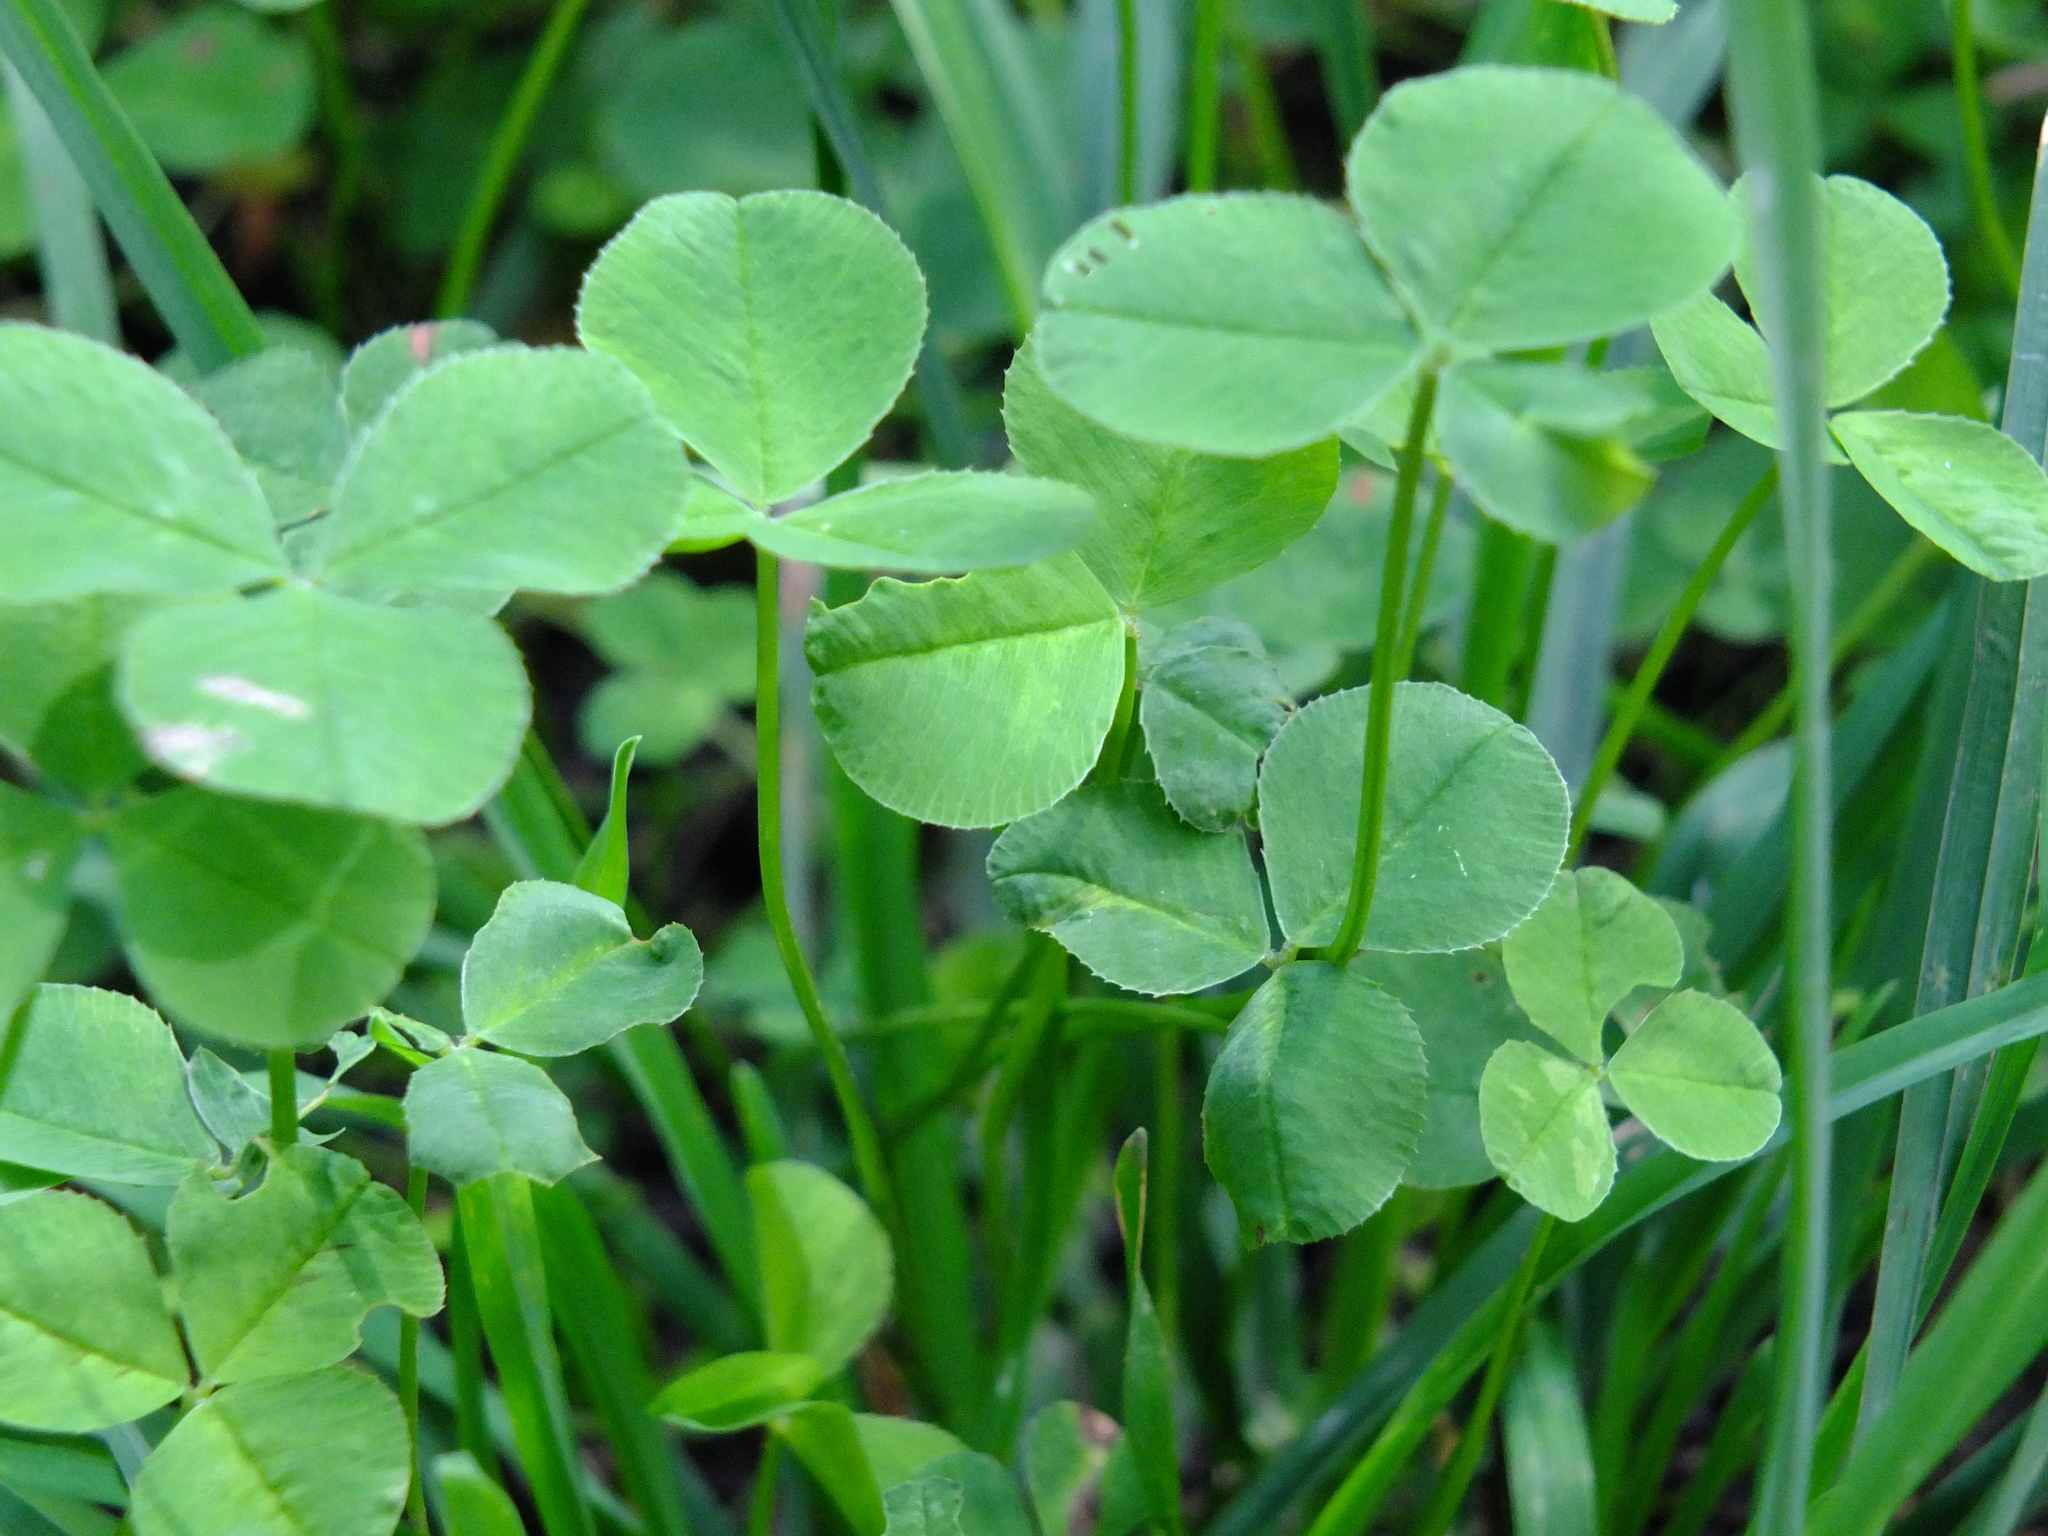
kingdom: Plantae
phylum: Tracheophyta
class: Magnoliopsida
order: Fabales
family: Fabaceae
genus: Trifolium
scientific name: Trifolium repens
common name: White clover
